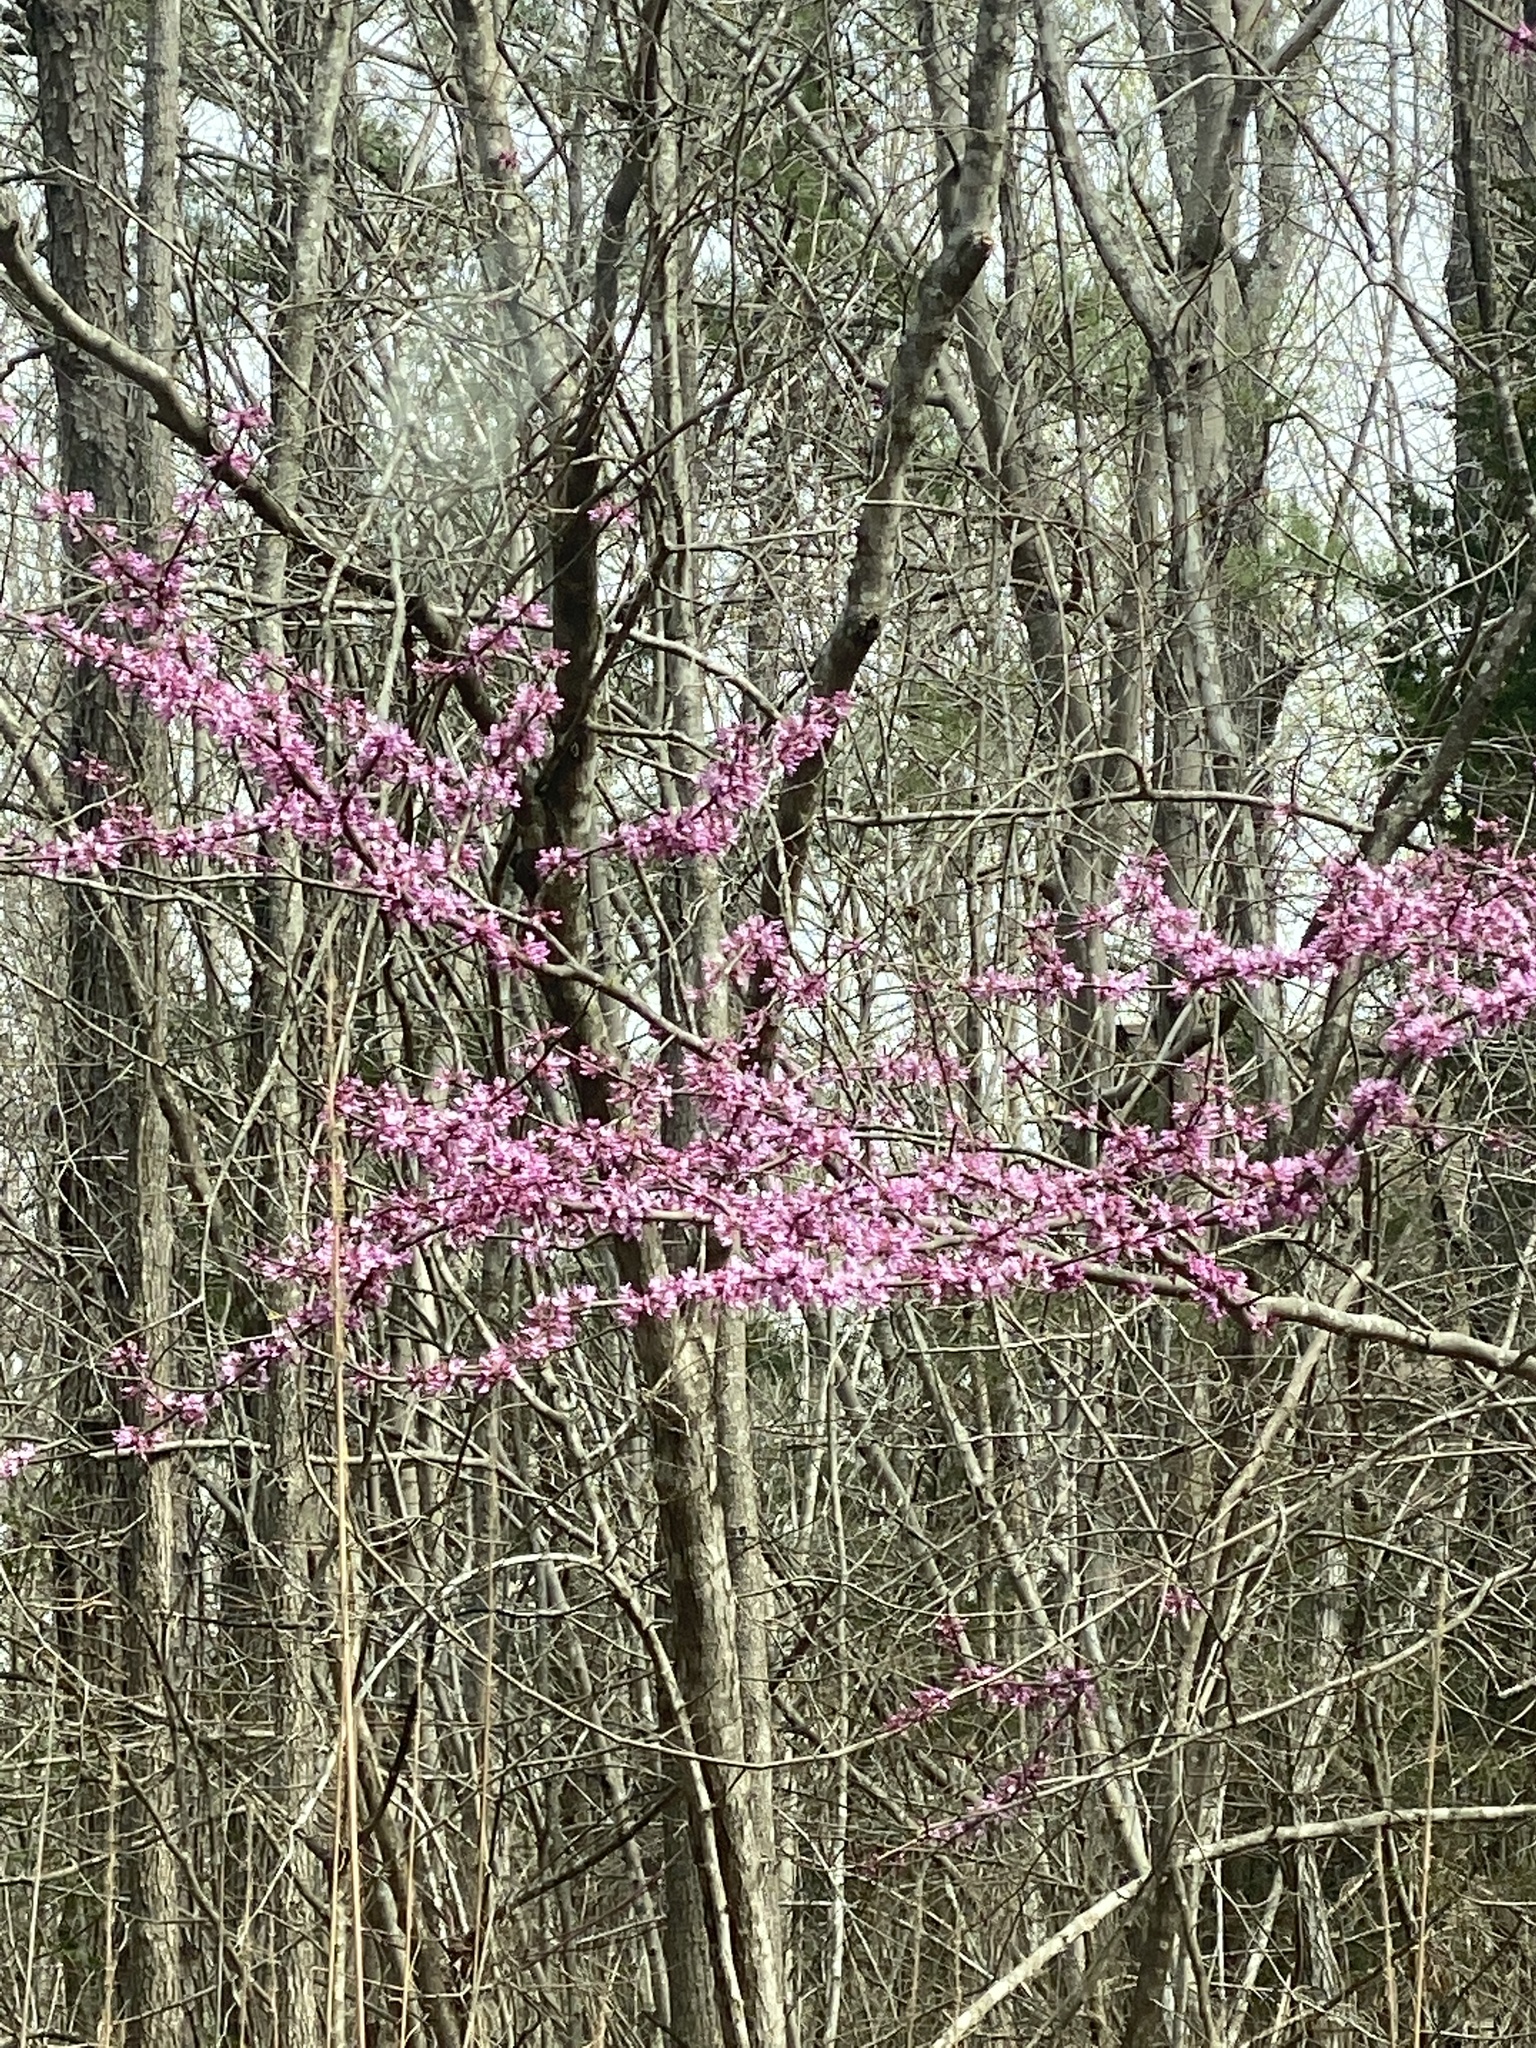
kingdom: Plantae
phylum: Tracheophyta
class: Magnoliopsida
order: Fabales
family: Fabaceae
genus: Cercis
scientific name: Cercis canadensis
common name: Eastern redbud
